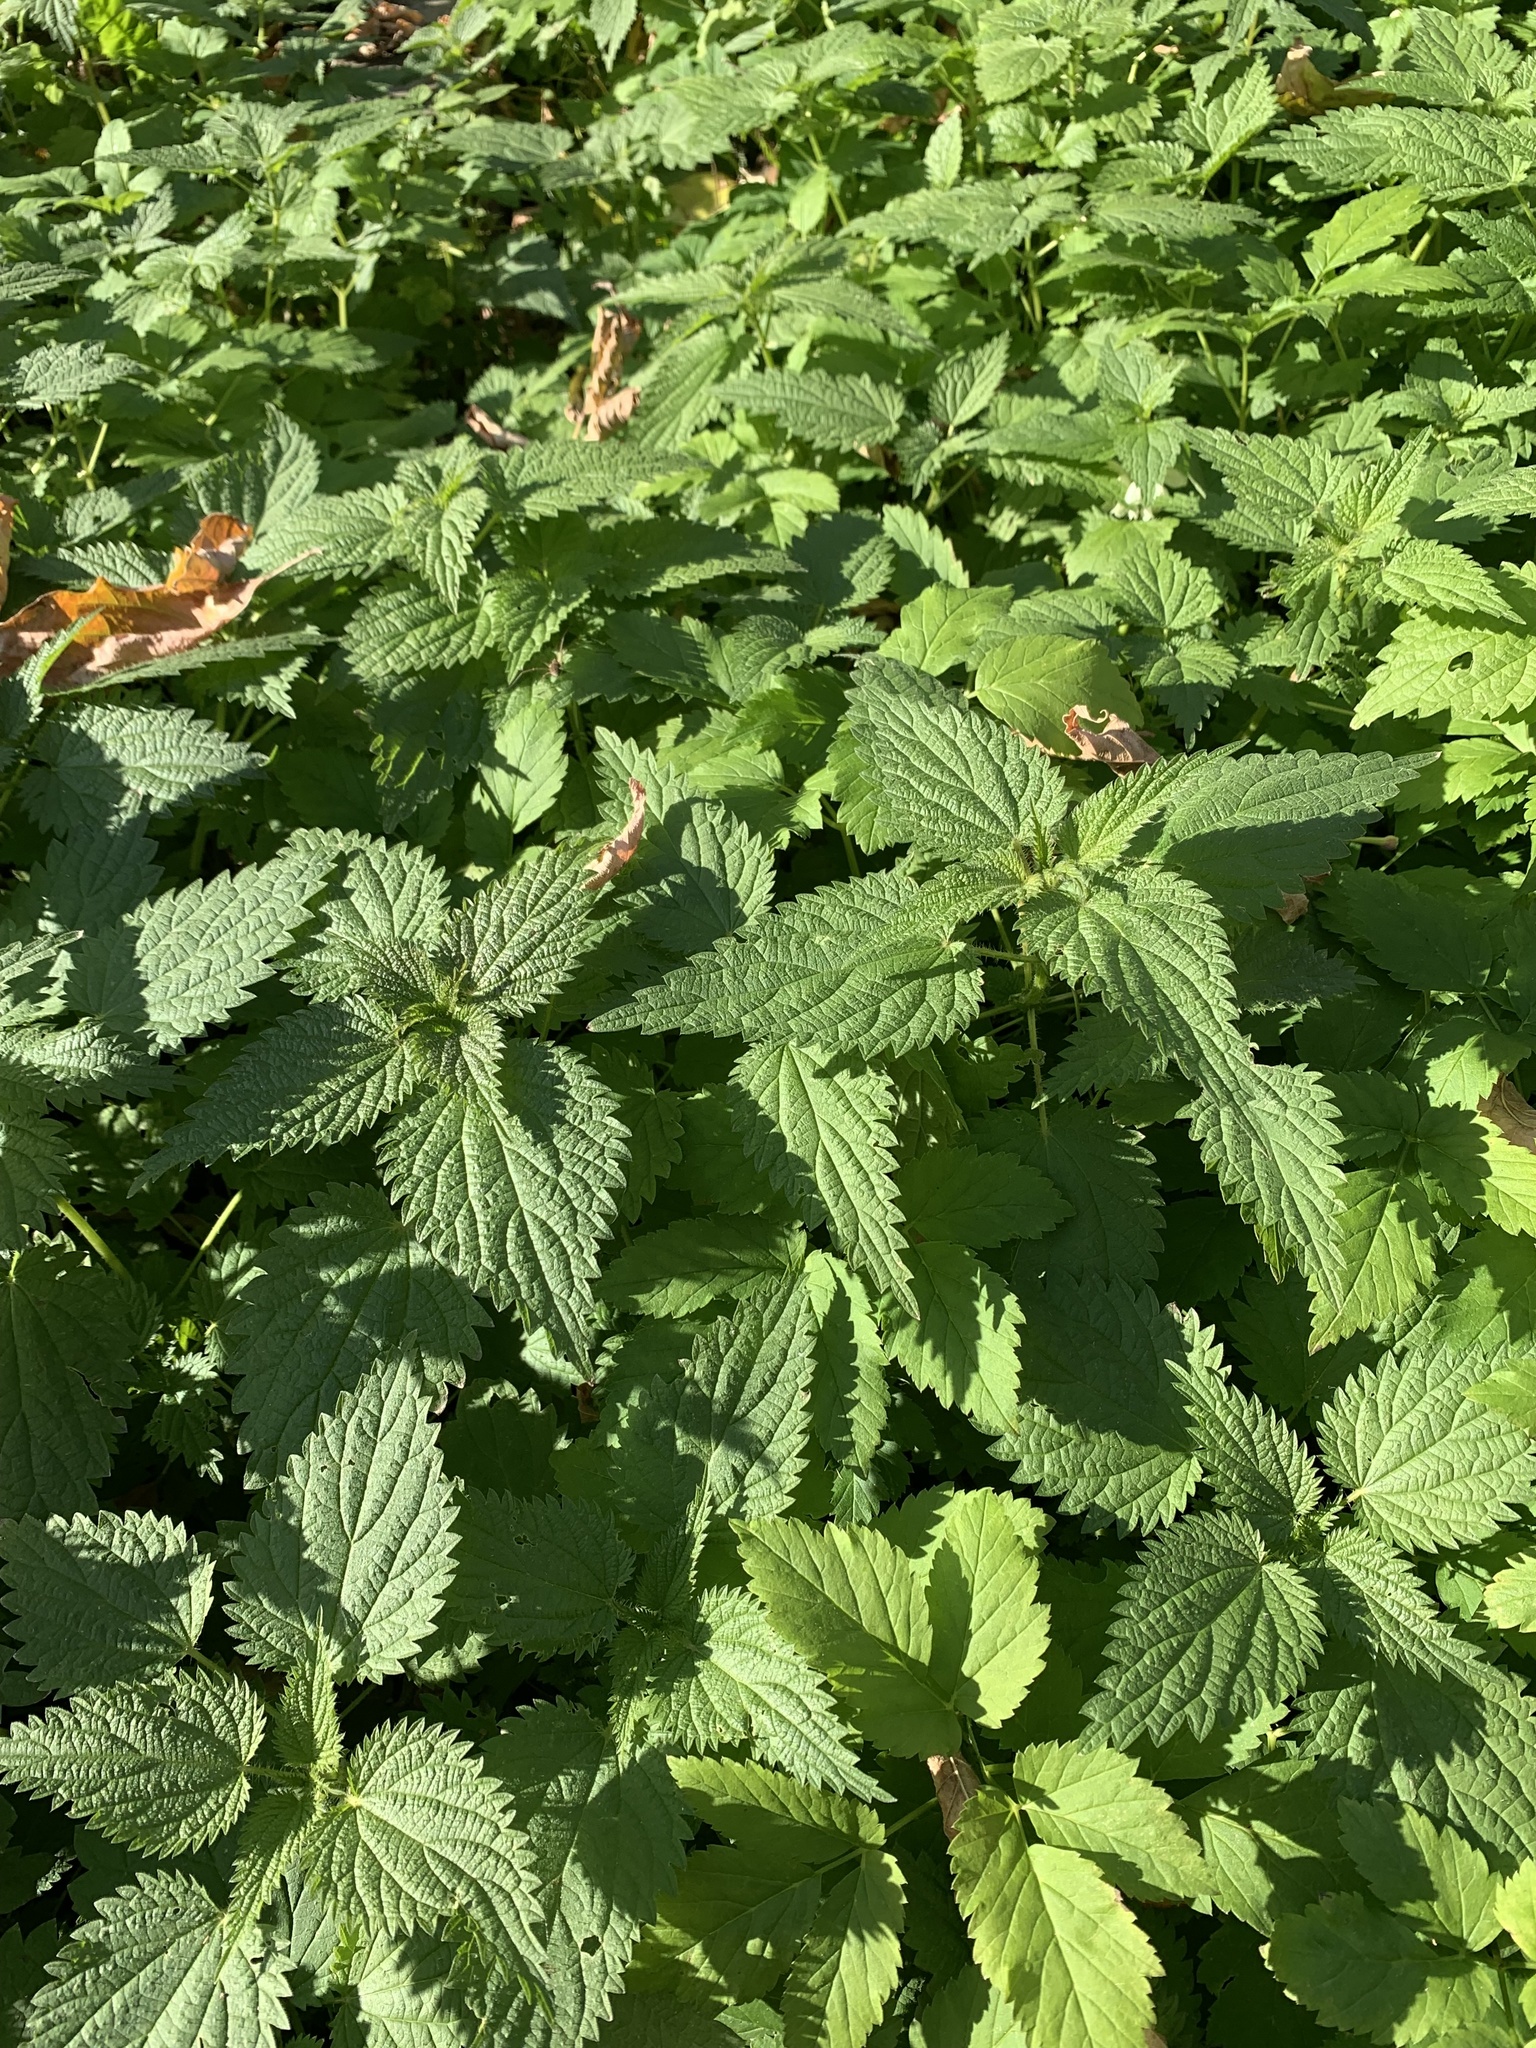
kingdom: Plantae
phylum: Tracheophyta
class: Magnoliopsida
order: Rosales
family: Urticaceae
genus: Urtica
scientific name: Urtica dioica
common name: Common nettle
